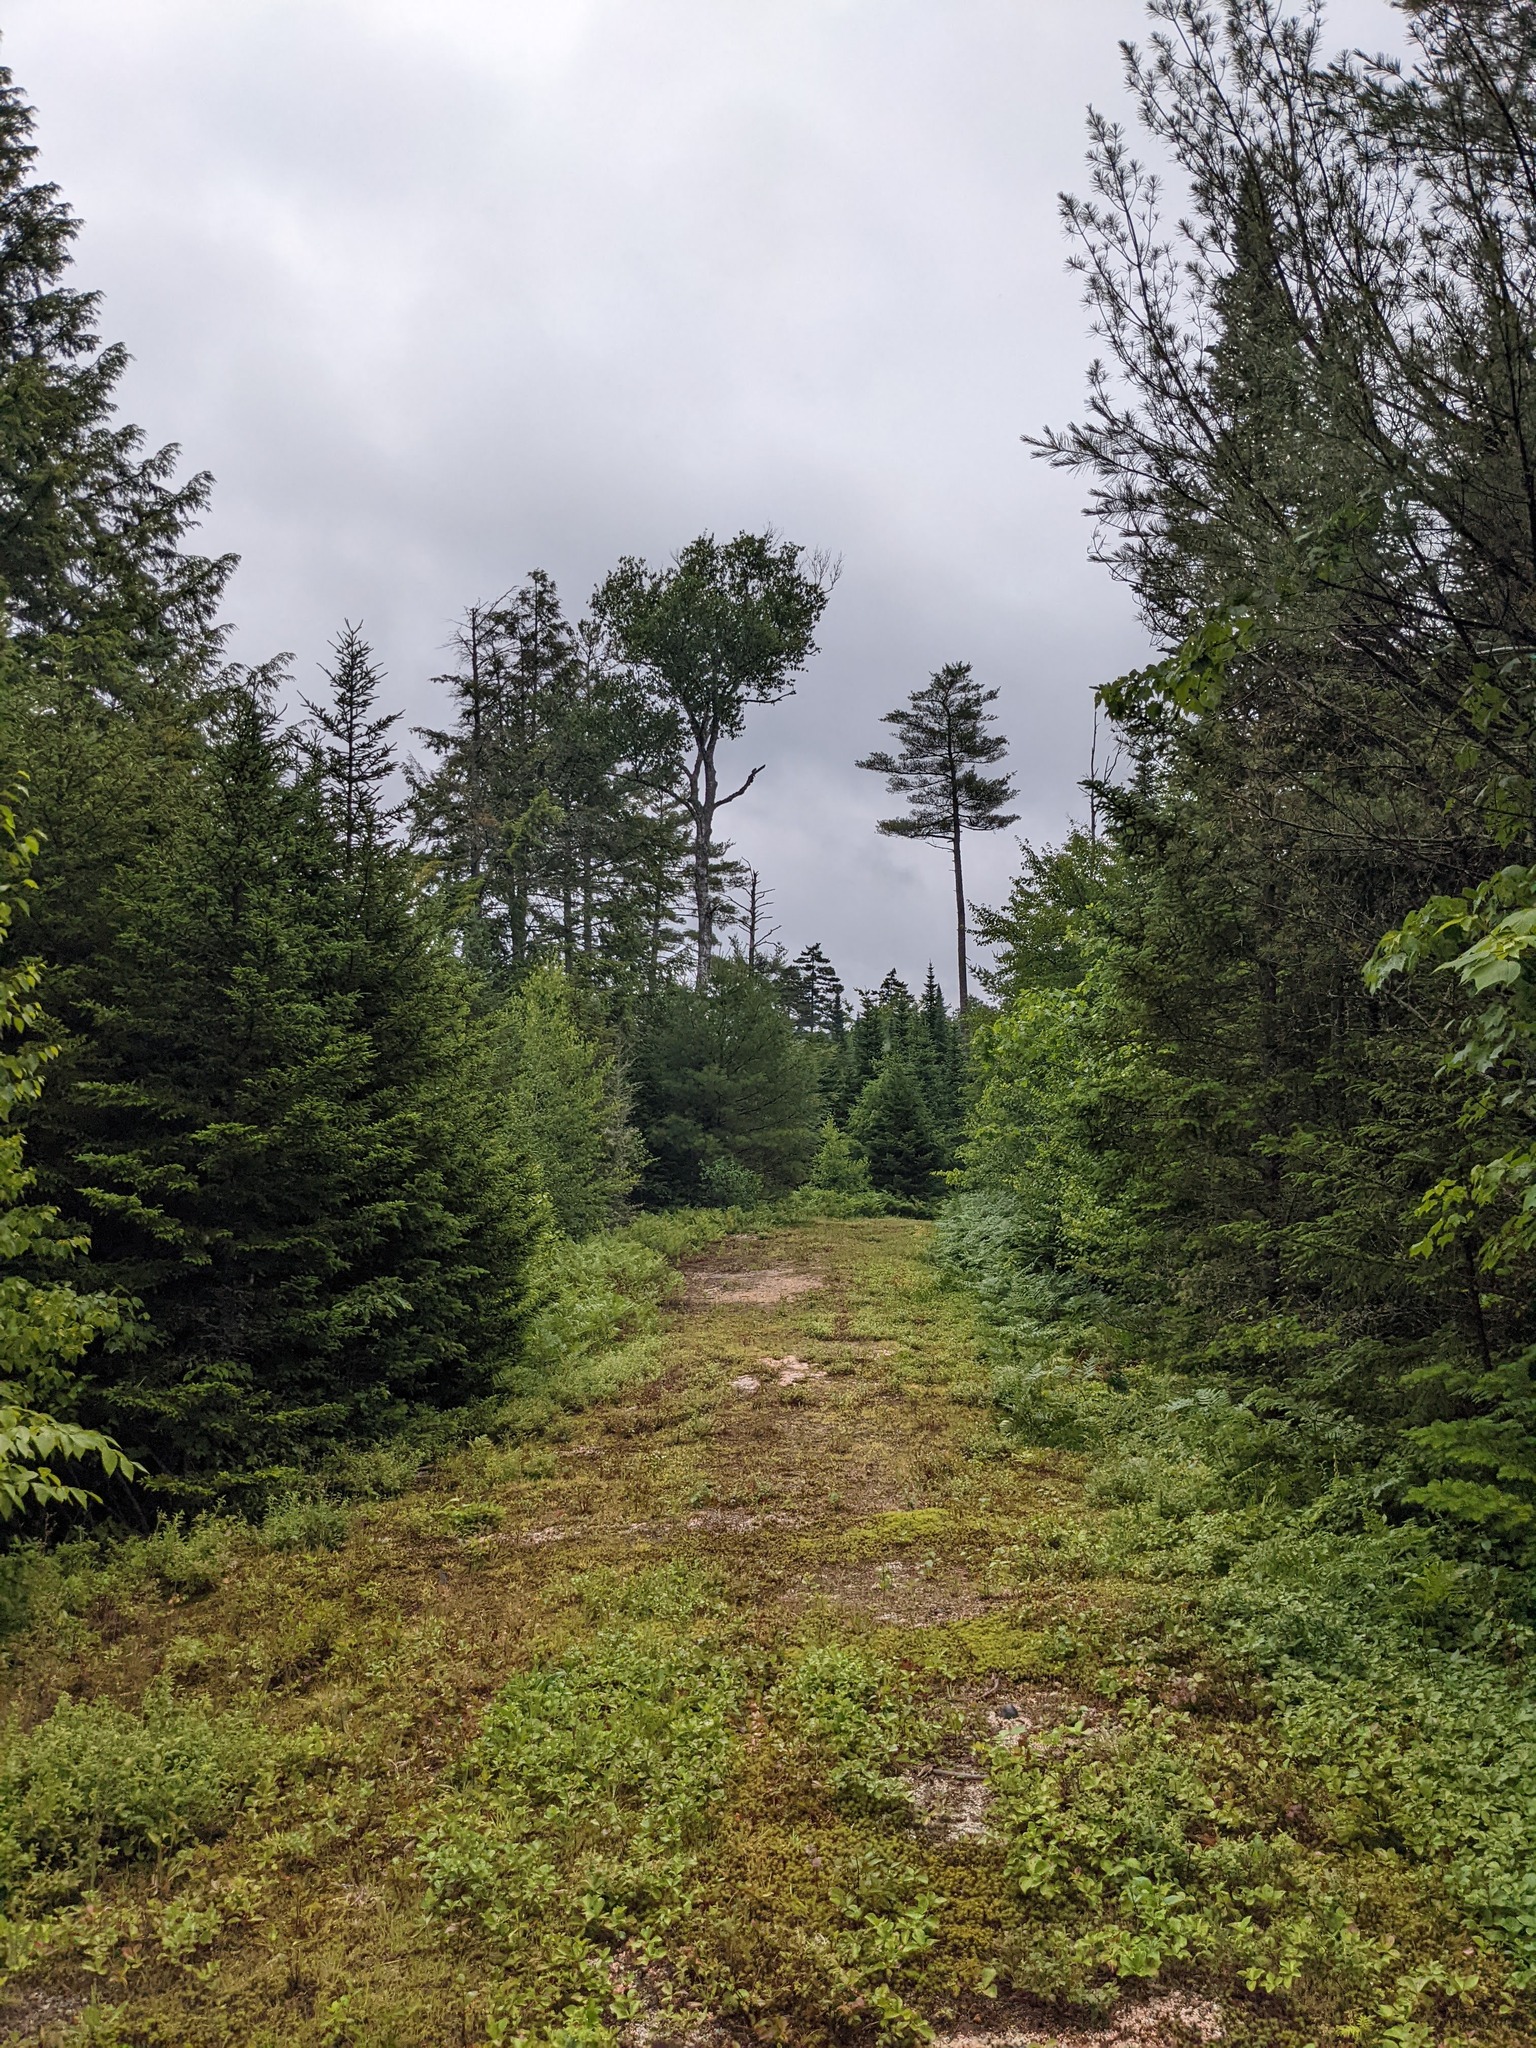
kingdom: Plantae
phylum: Tracheophyta
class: Pinopsida
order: Pinales
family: Pinaceae
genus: Pinus
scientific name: Pinus strobus
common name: Weymouth pine
